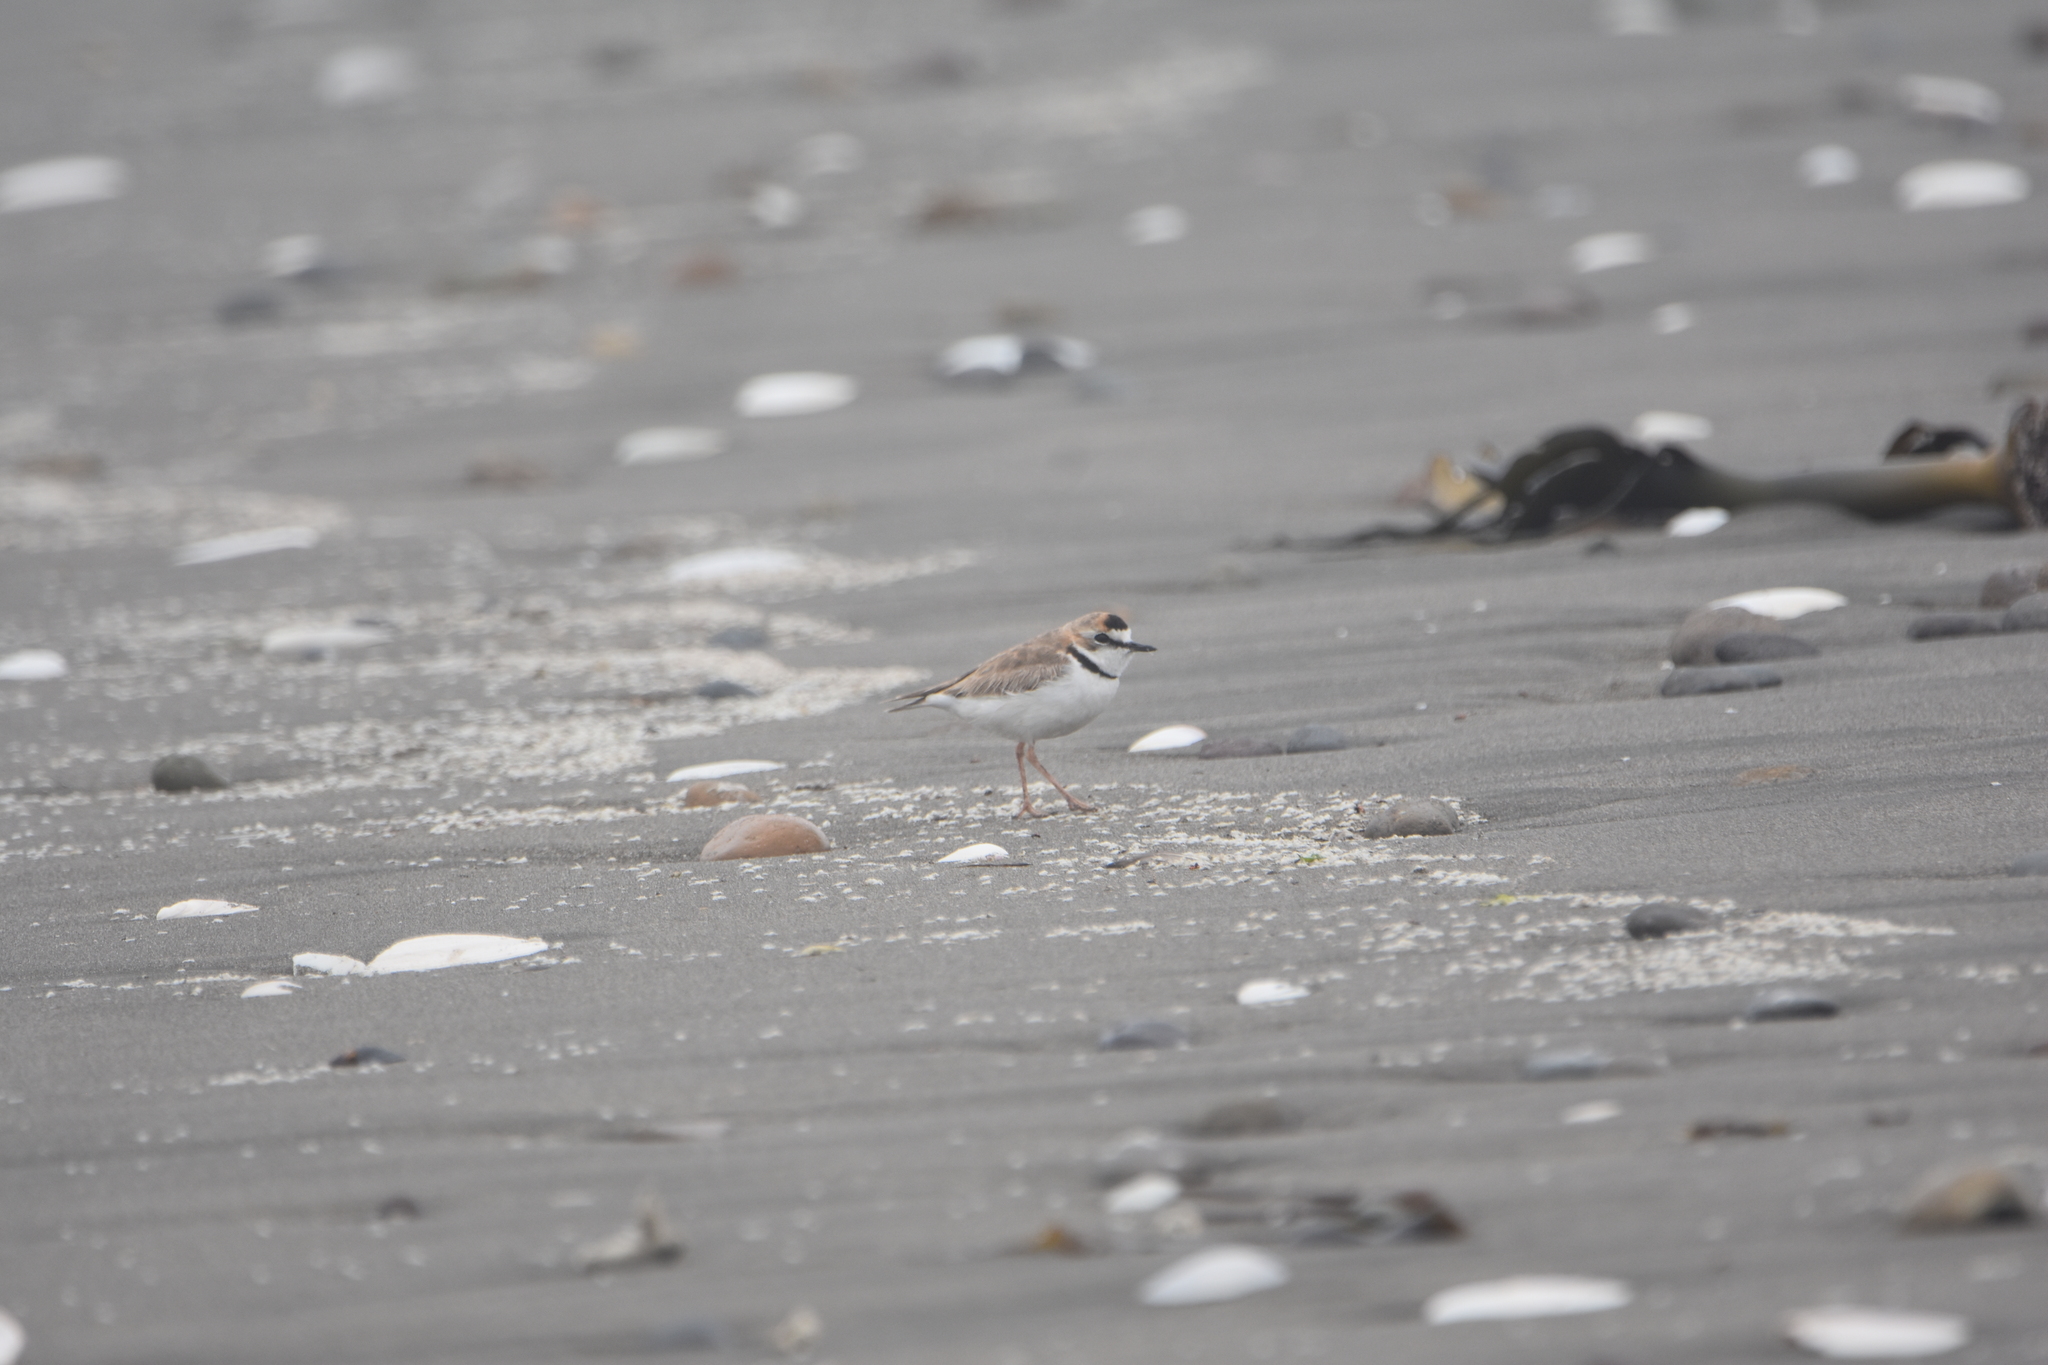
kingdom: Animalia
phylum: Chordata
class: Aves
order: Charadriiformes
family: Charadriidae
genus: Anarhynchus
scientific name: Anarhynchus
